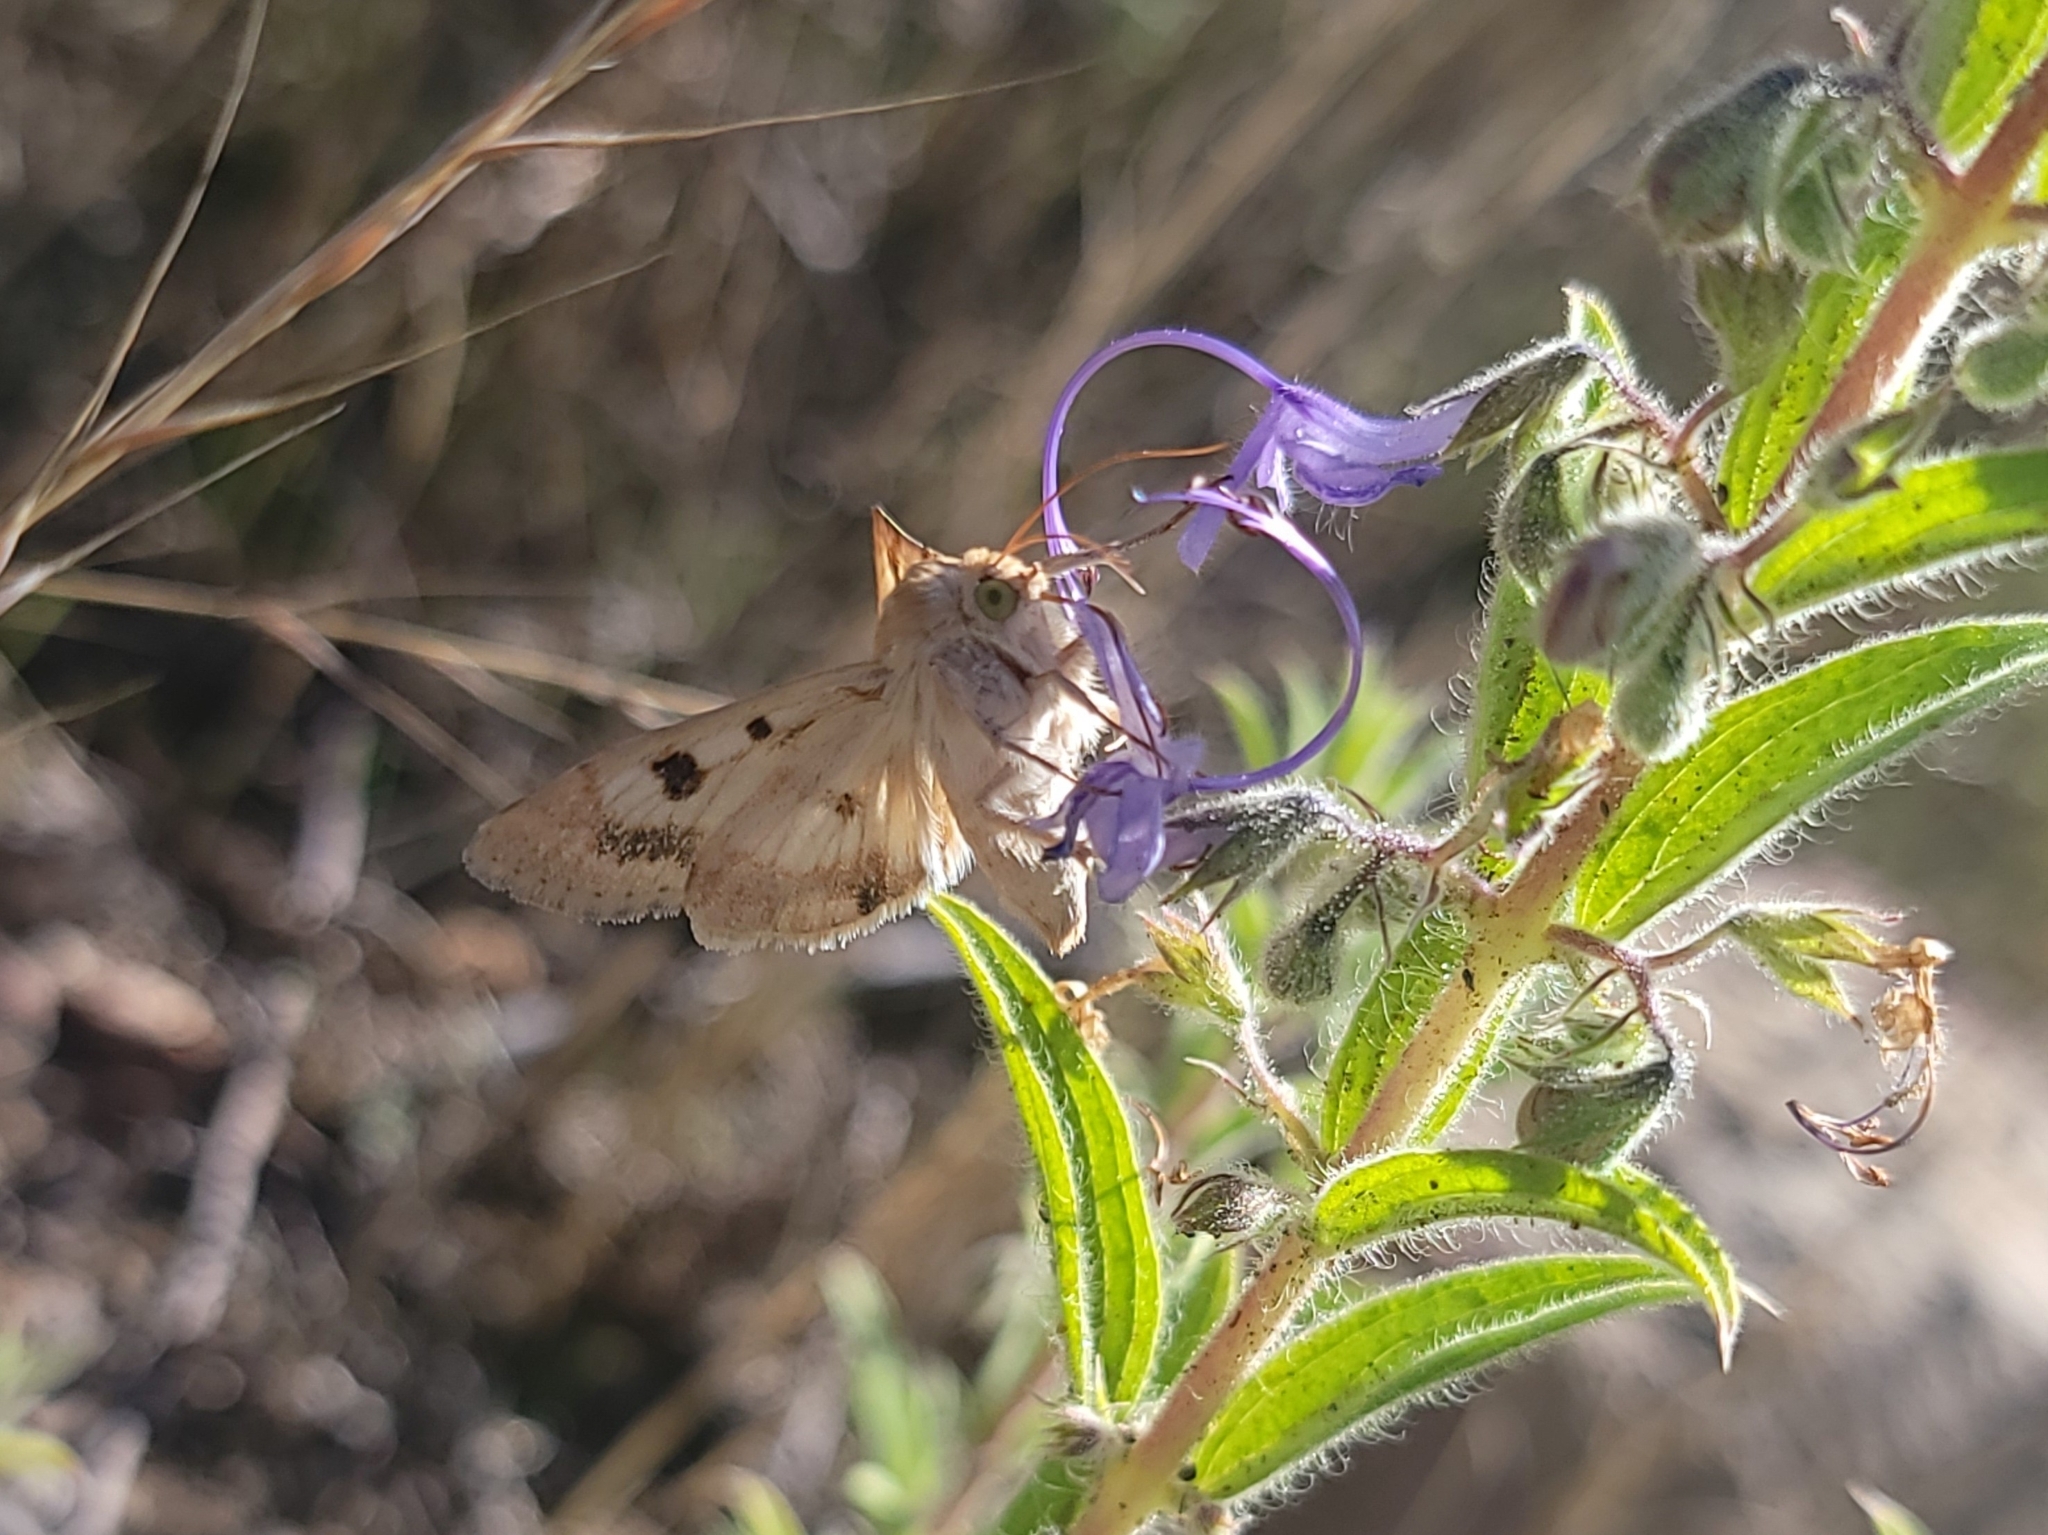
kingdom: Animalia
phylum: Arthropoda
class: Insecta
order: Lepidoptera
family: Noctuidae
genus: Heliothis
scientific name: Heliothis phloxiphaga
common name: Darker spotted straw moth
